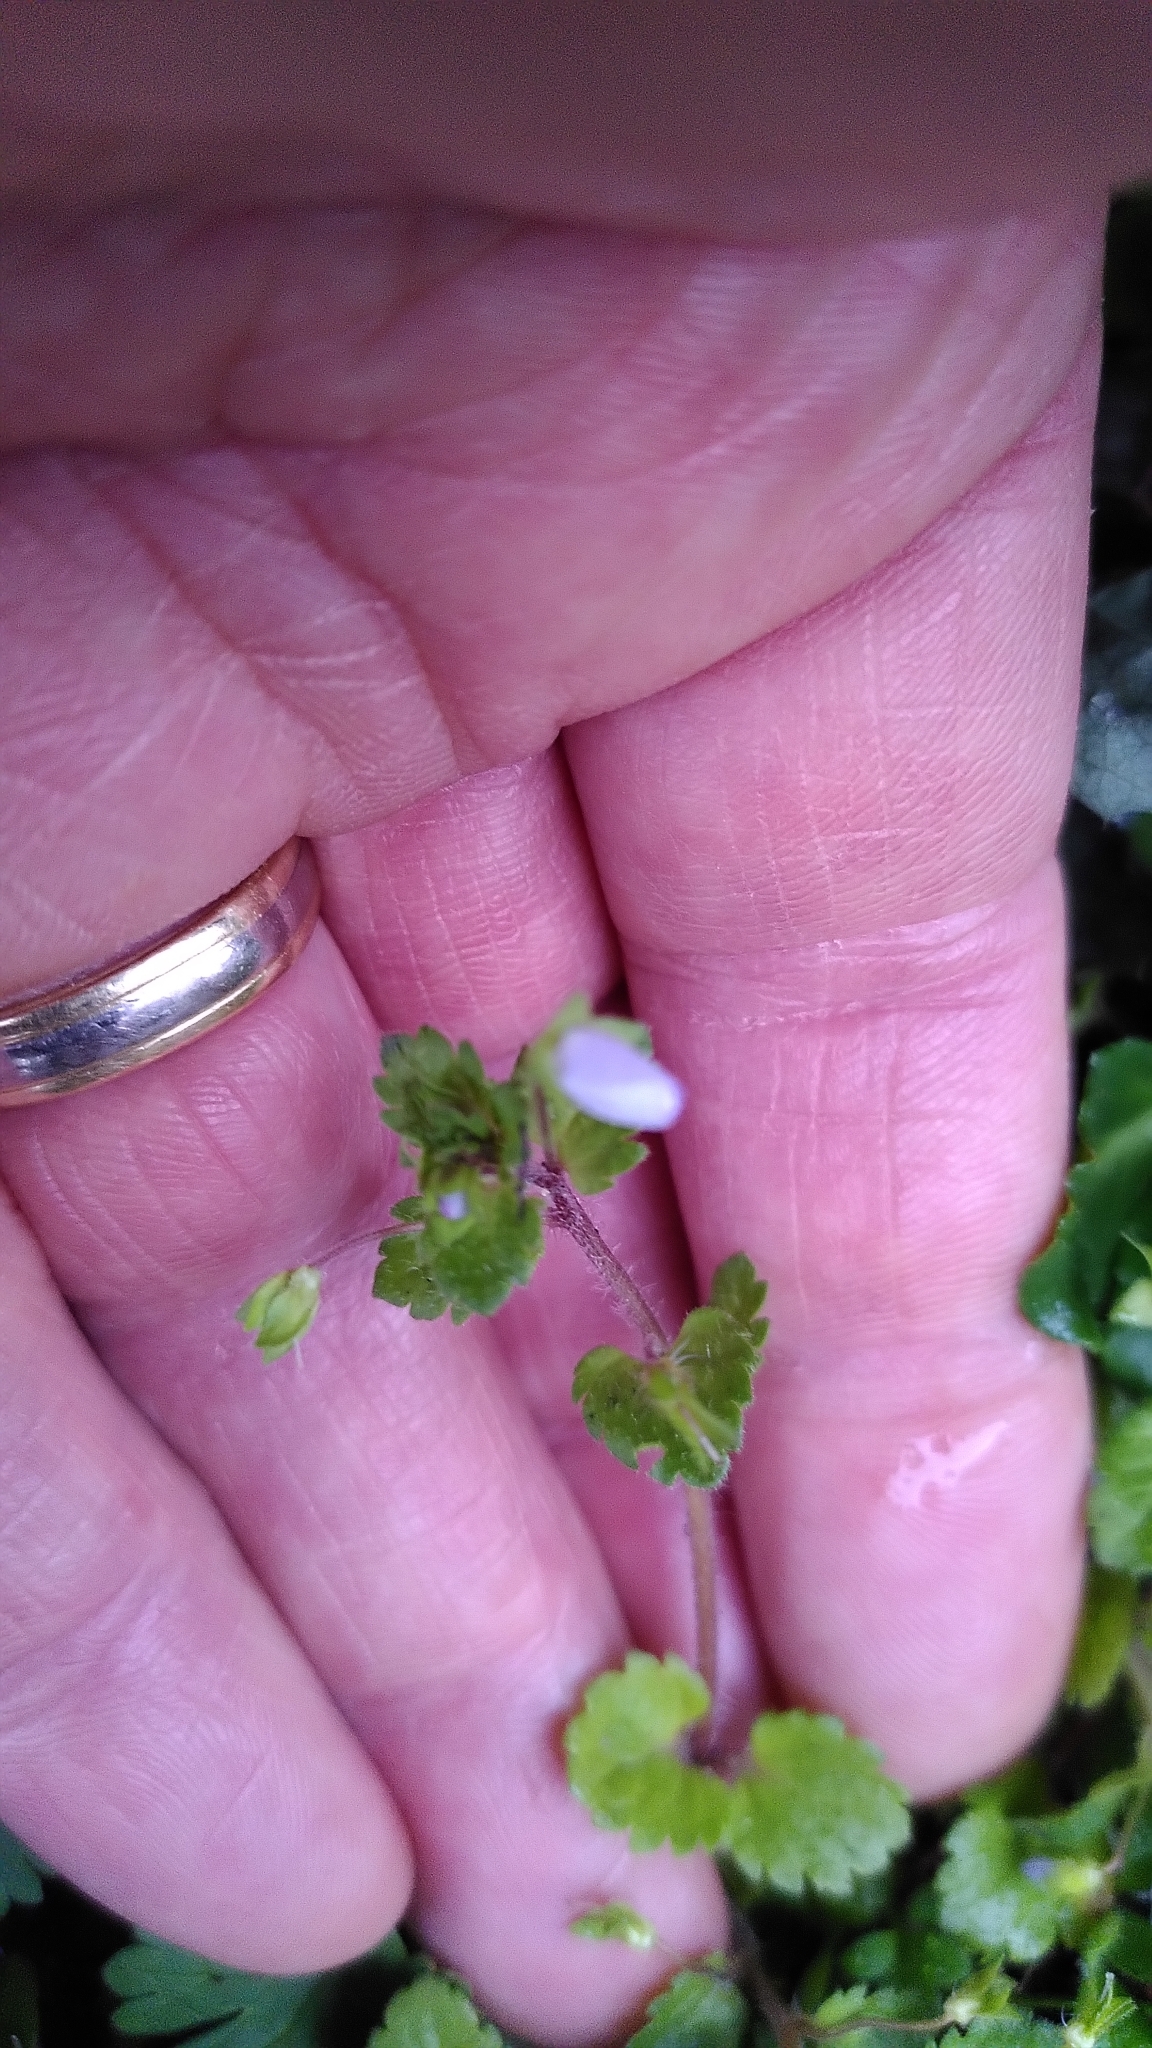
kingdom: Plantae
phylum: Tracheophyta
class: Magnoliopsida
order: Lamiales
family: Plantaginaceae
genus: Veronica
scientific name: Veronica persica
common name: Common field-speedwell
